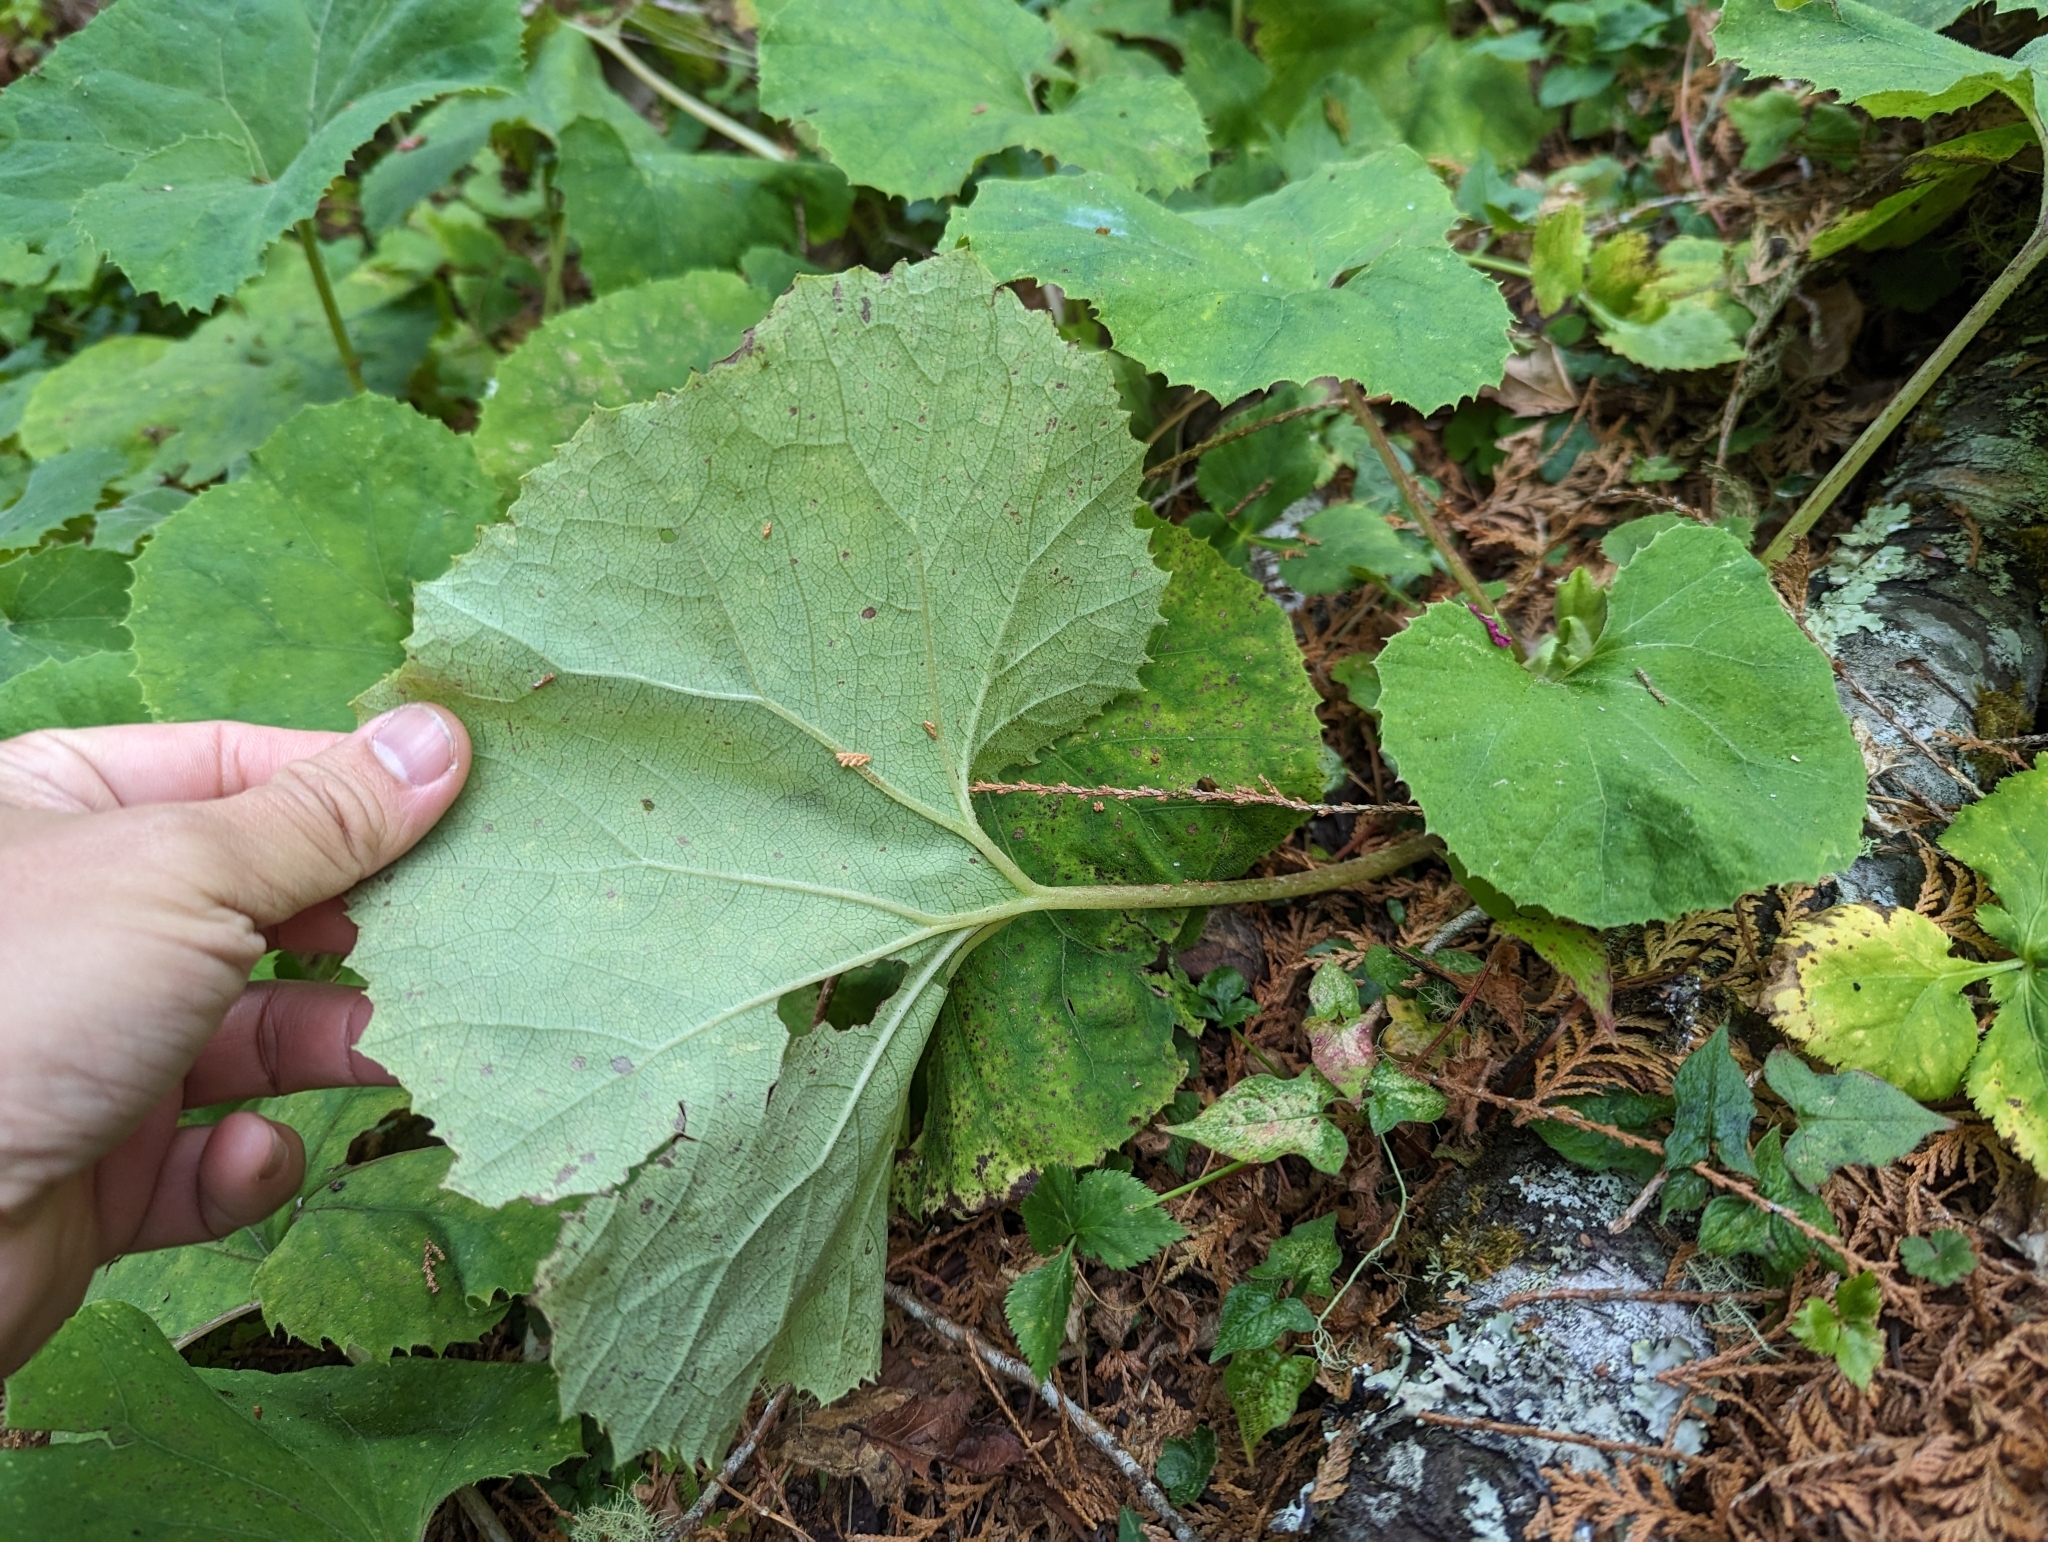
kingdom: Plantae
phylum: Tracheophyta
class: Magnoliopsida
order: Asterales
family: Asteraceae
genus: Petasites
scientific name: Petasites formosanus
